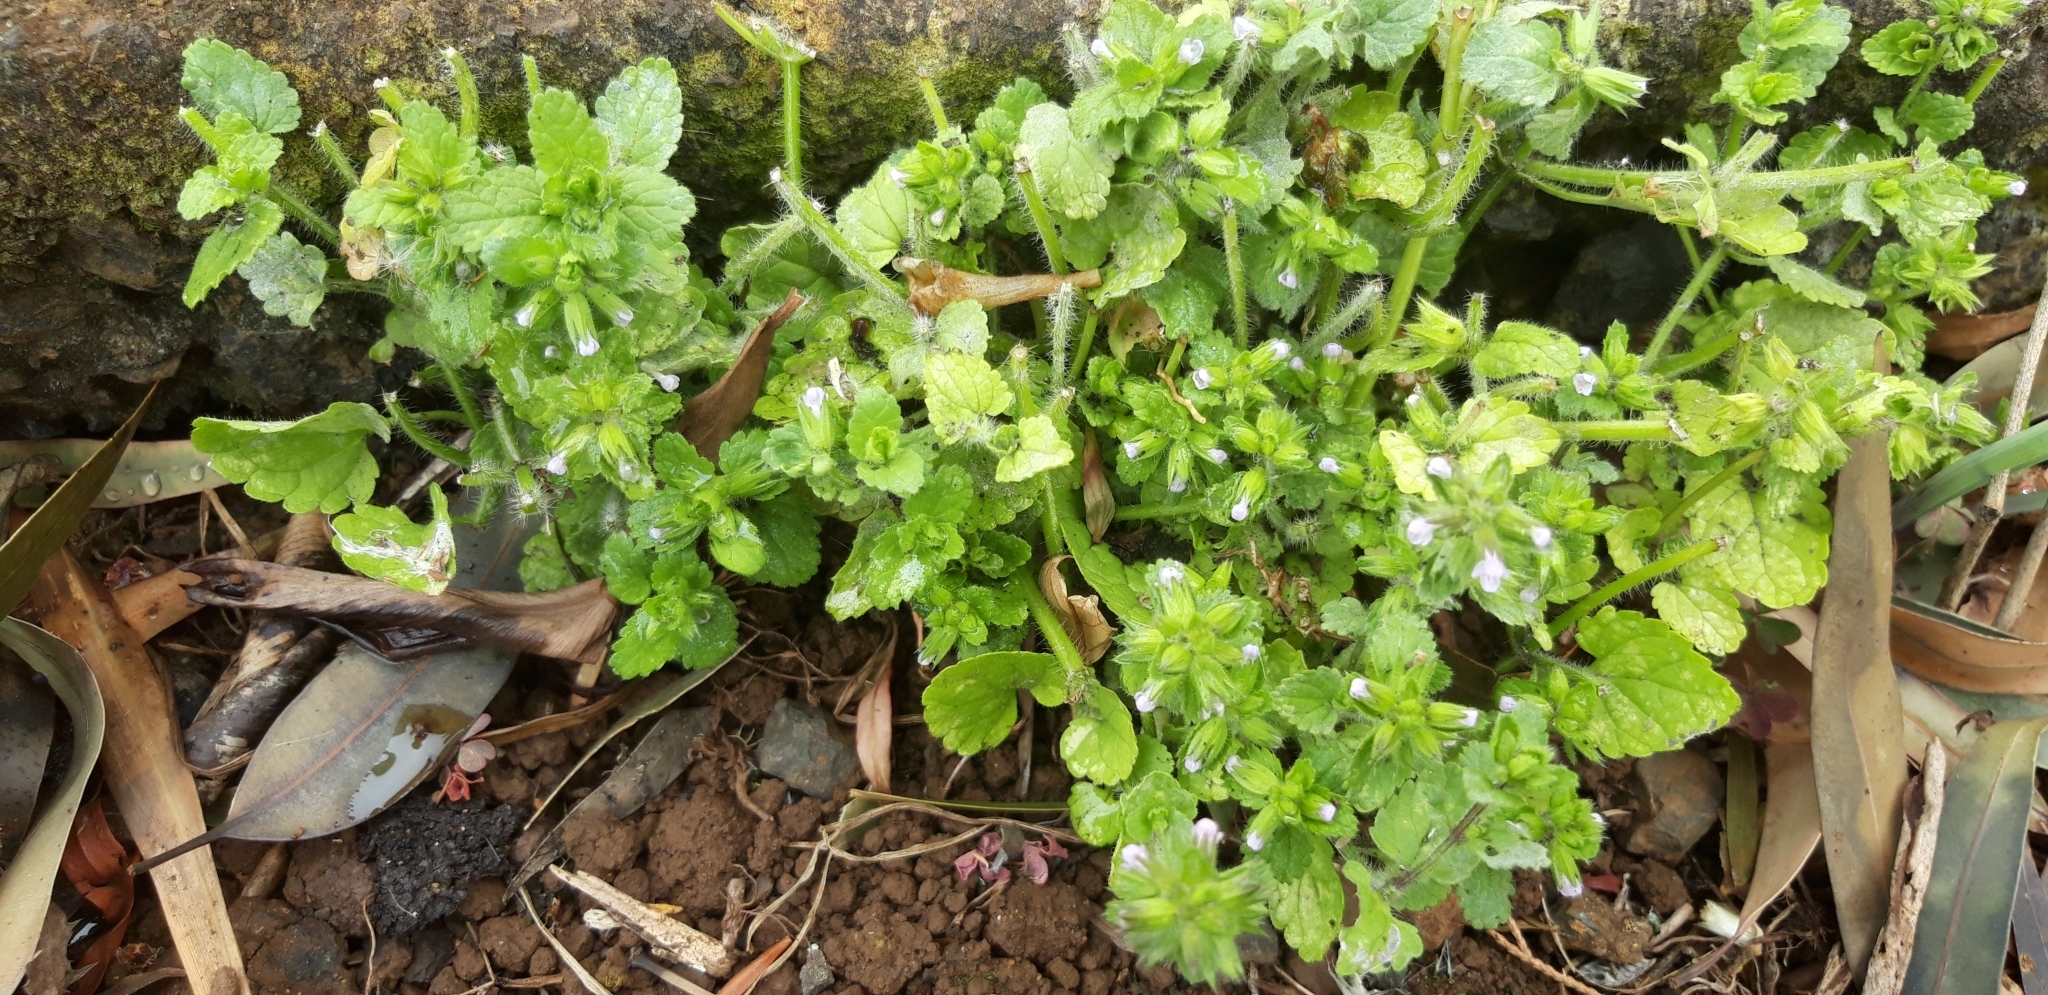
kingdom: Plantae
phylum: Tracheophyta
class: Magnoliopsida
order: Lamiales
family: Lamiaceae
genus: Stachys
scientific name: Stachys arvensis
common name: Field woundwort
